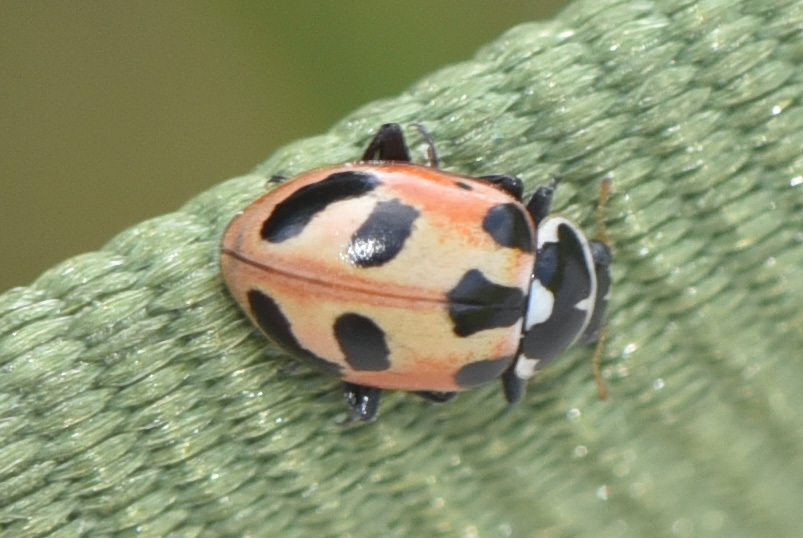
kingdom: Animalia
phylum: Arthropoda
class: Insecta
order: Coleoptera
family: Coccinellidae
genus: Hippodamia
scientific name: Hippodamia parenthesis
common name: Parenthesis lady beetle
